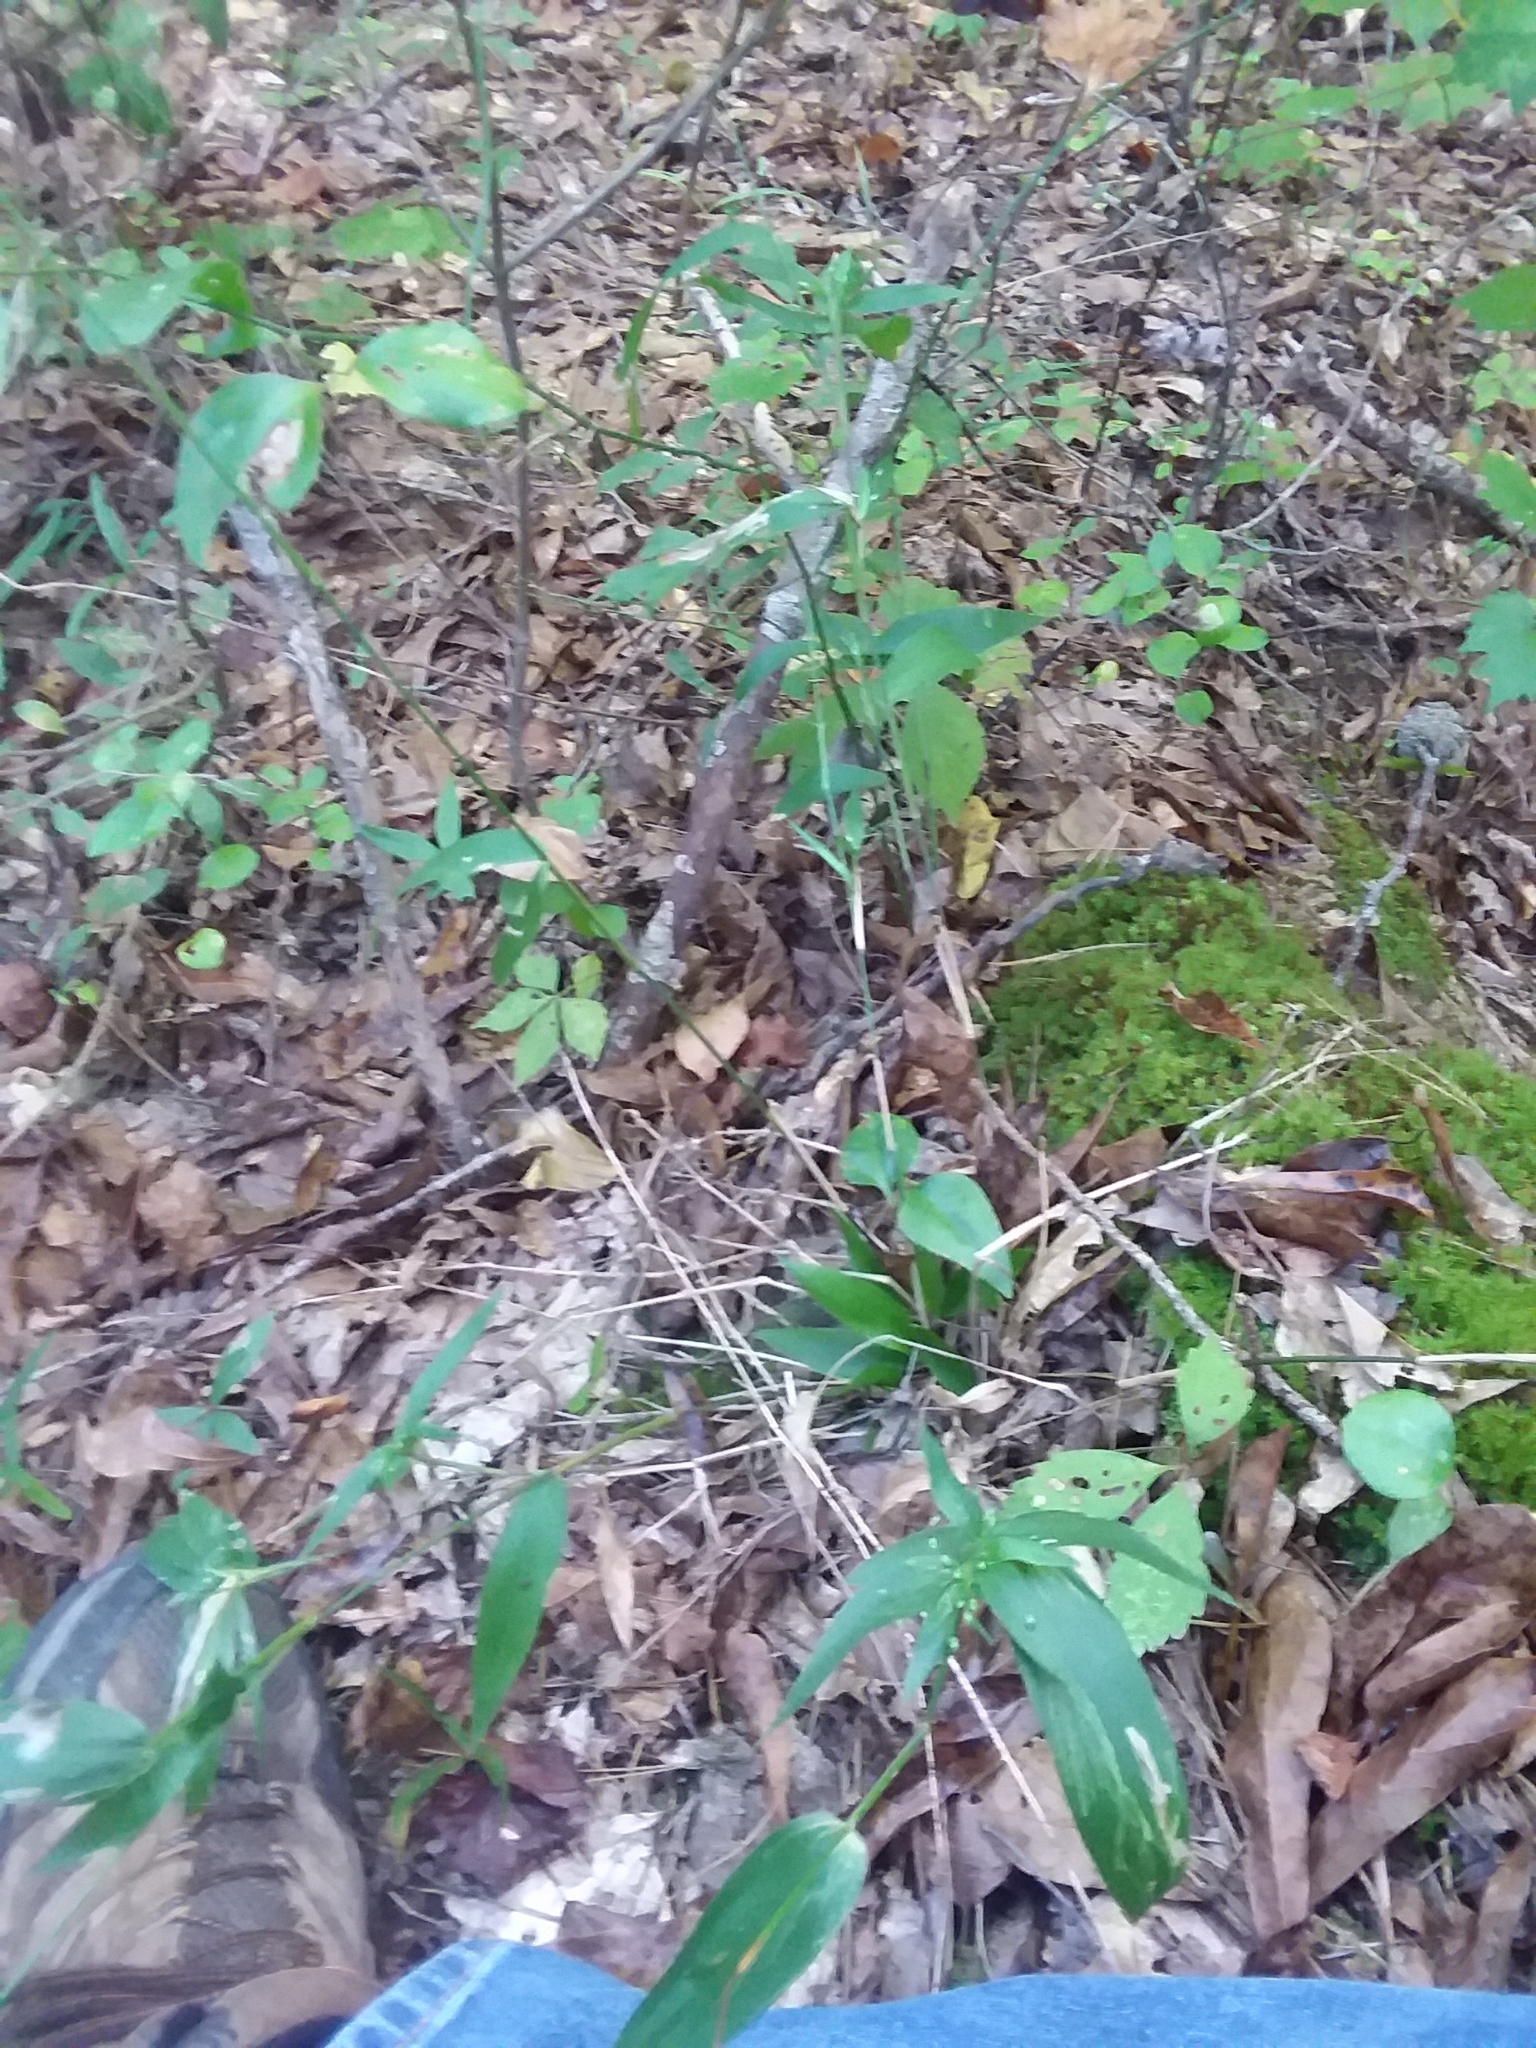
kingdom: Plantae
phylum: Tracheophyta
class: Liliopsida
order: Poales
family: Poaceae
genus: Dichanthelium
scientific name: Dichanthelium commutatum
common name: Variable witchgrass
